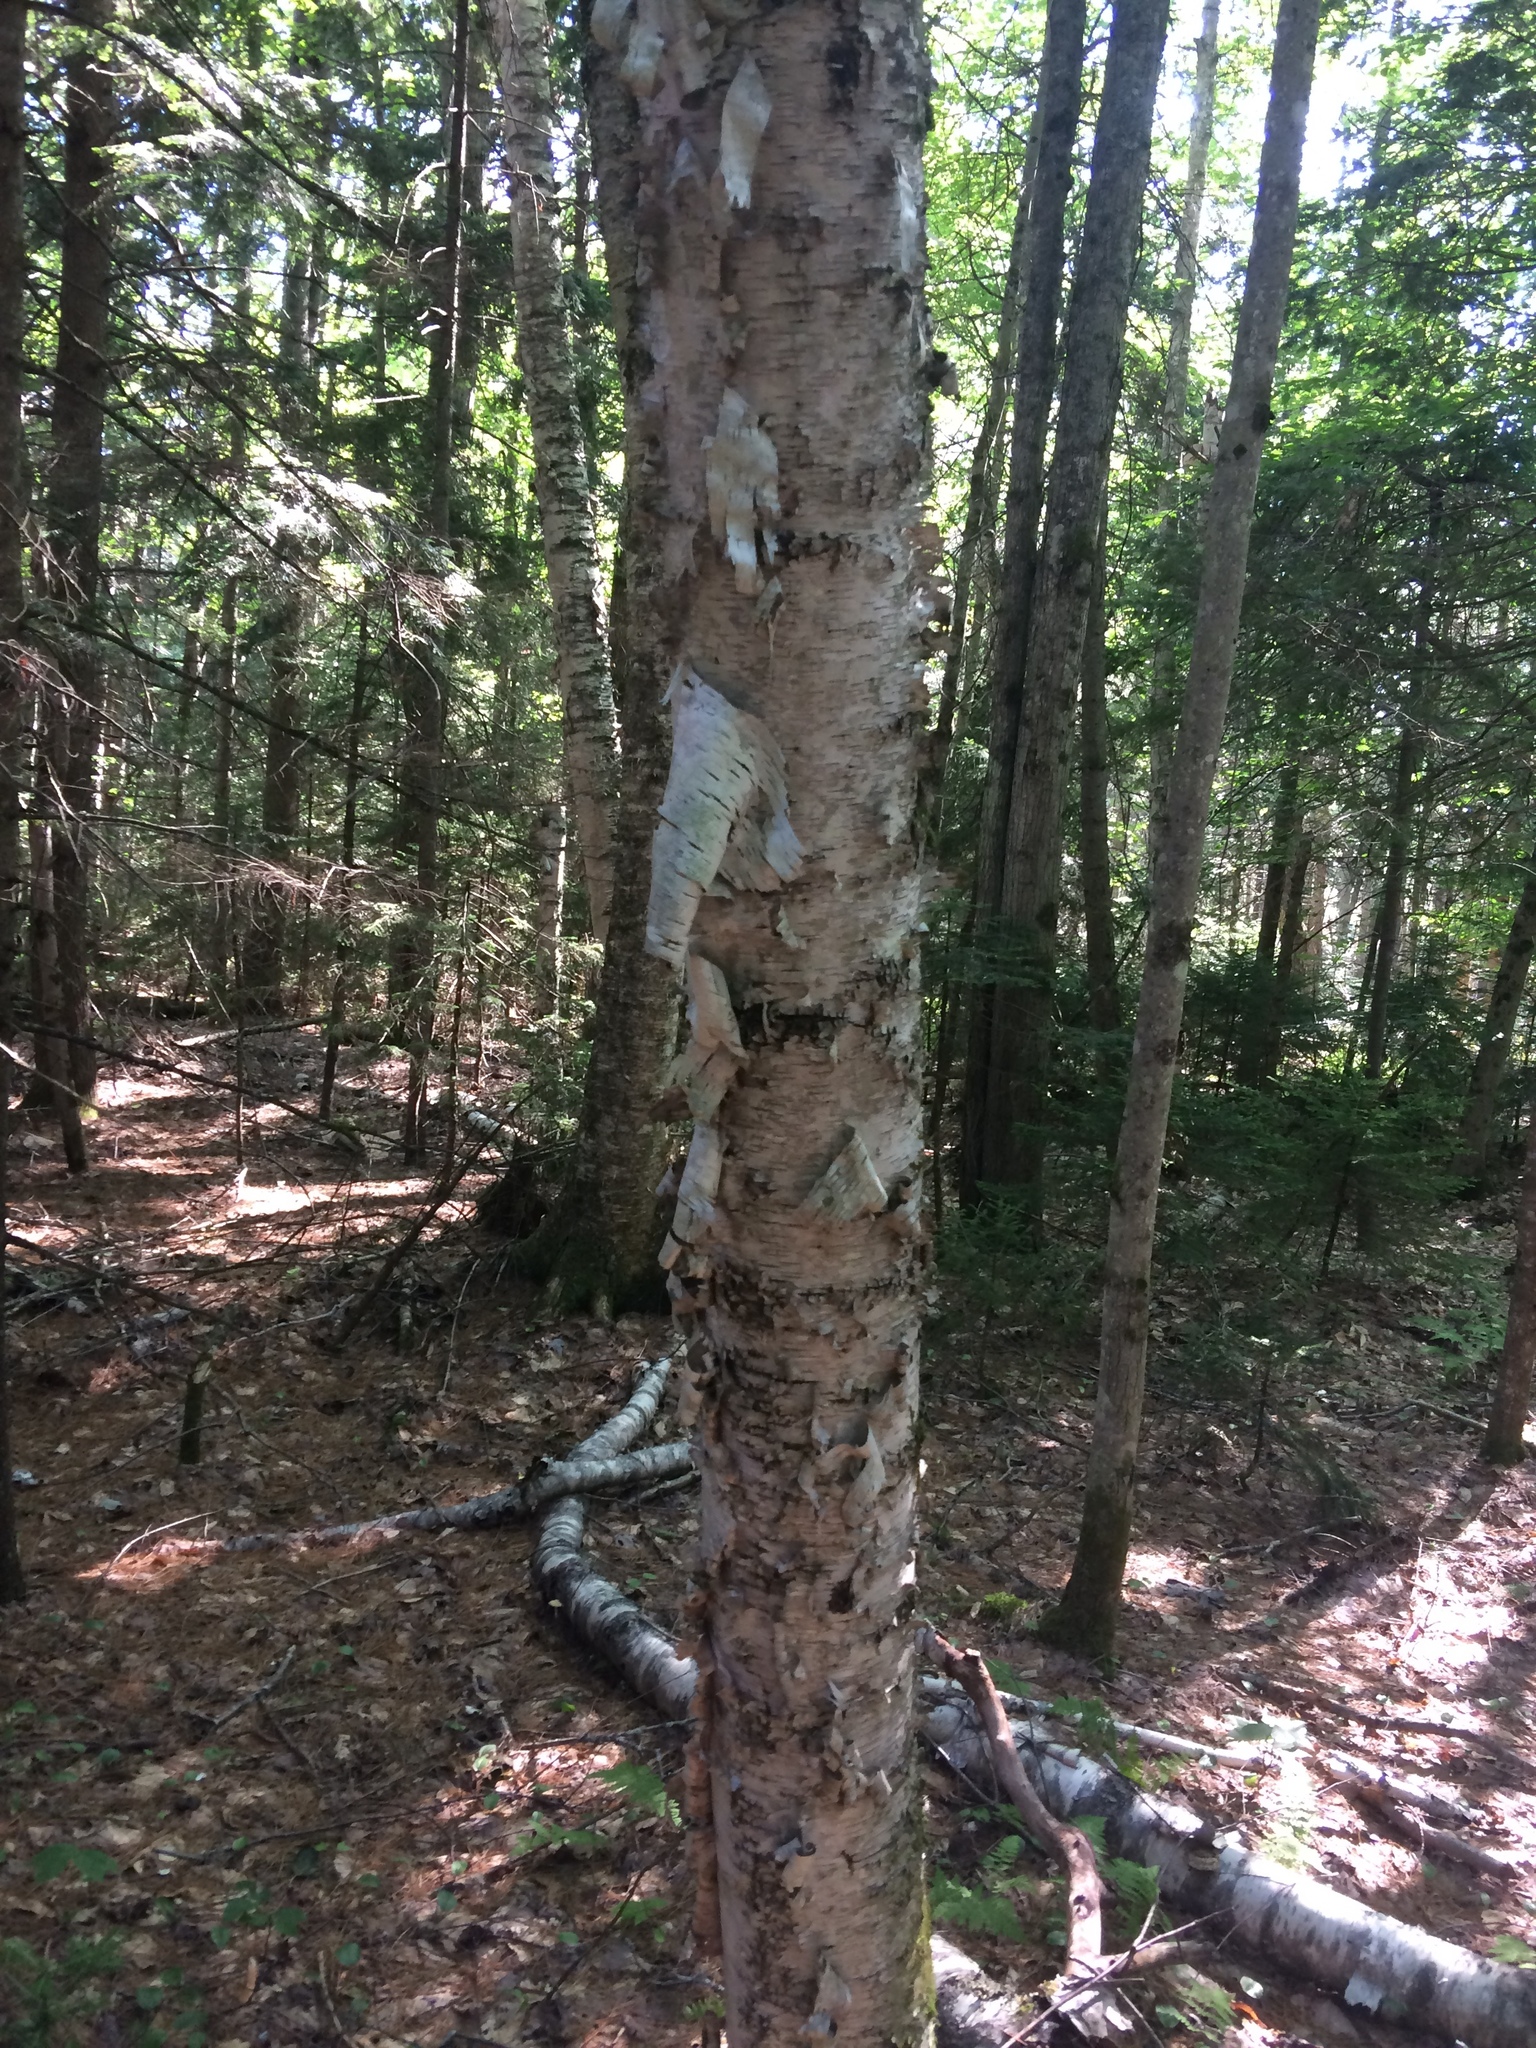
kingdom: Plantae
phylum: Tracheophyta
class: Magnoliopsida
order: Fagales
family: Betulaceae
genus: Betula
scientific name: Betula papyrifera
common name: Paper birch
